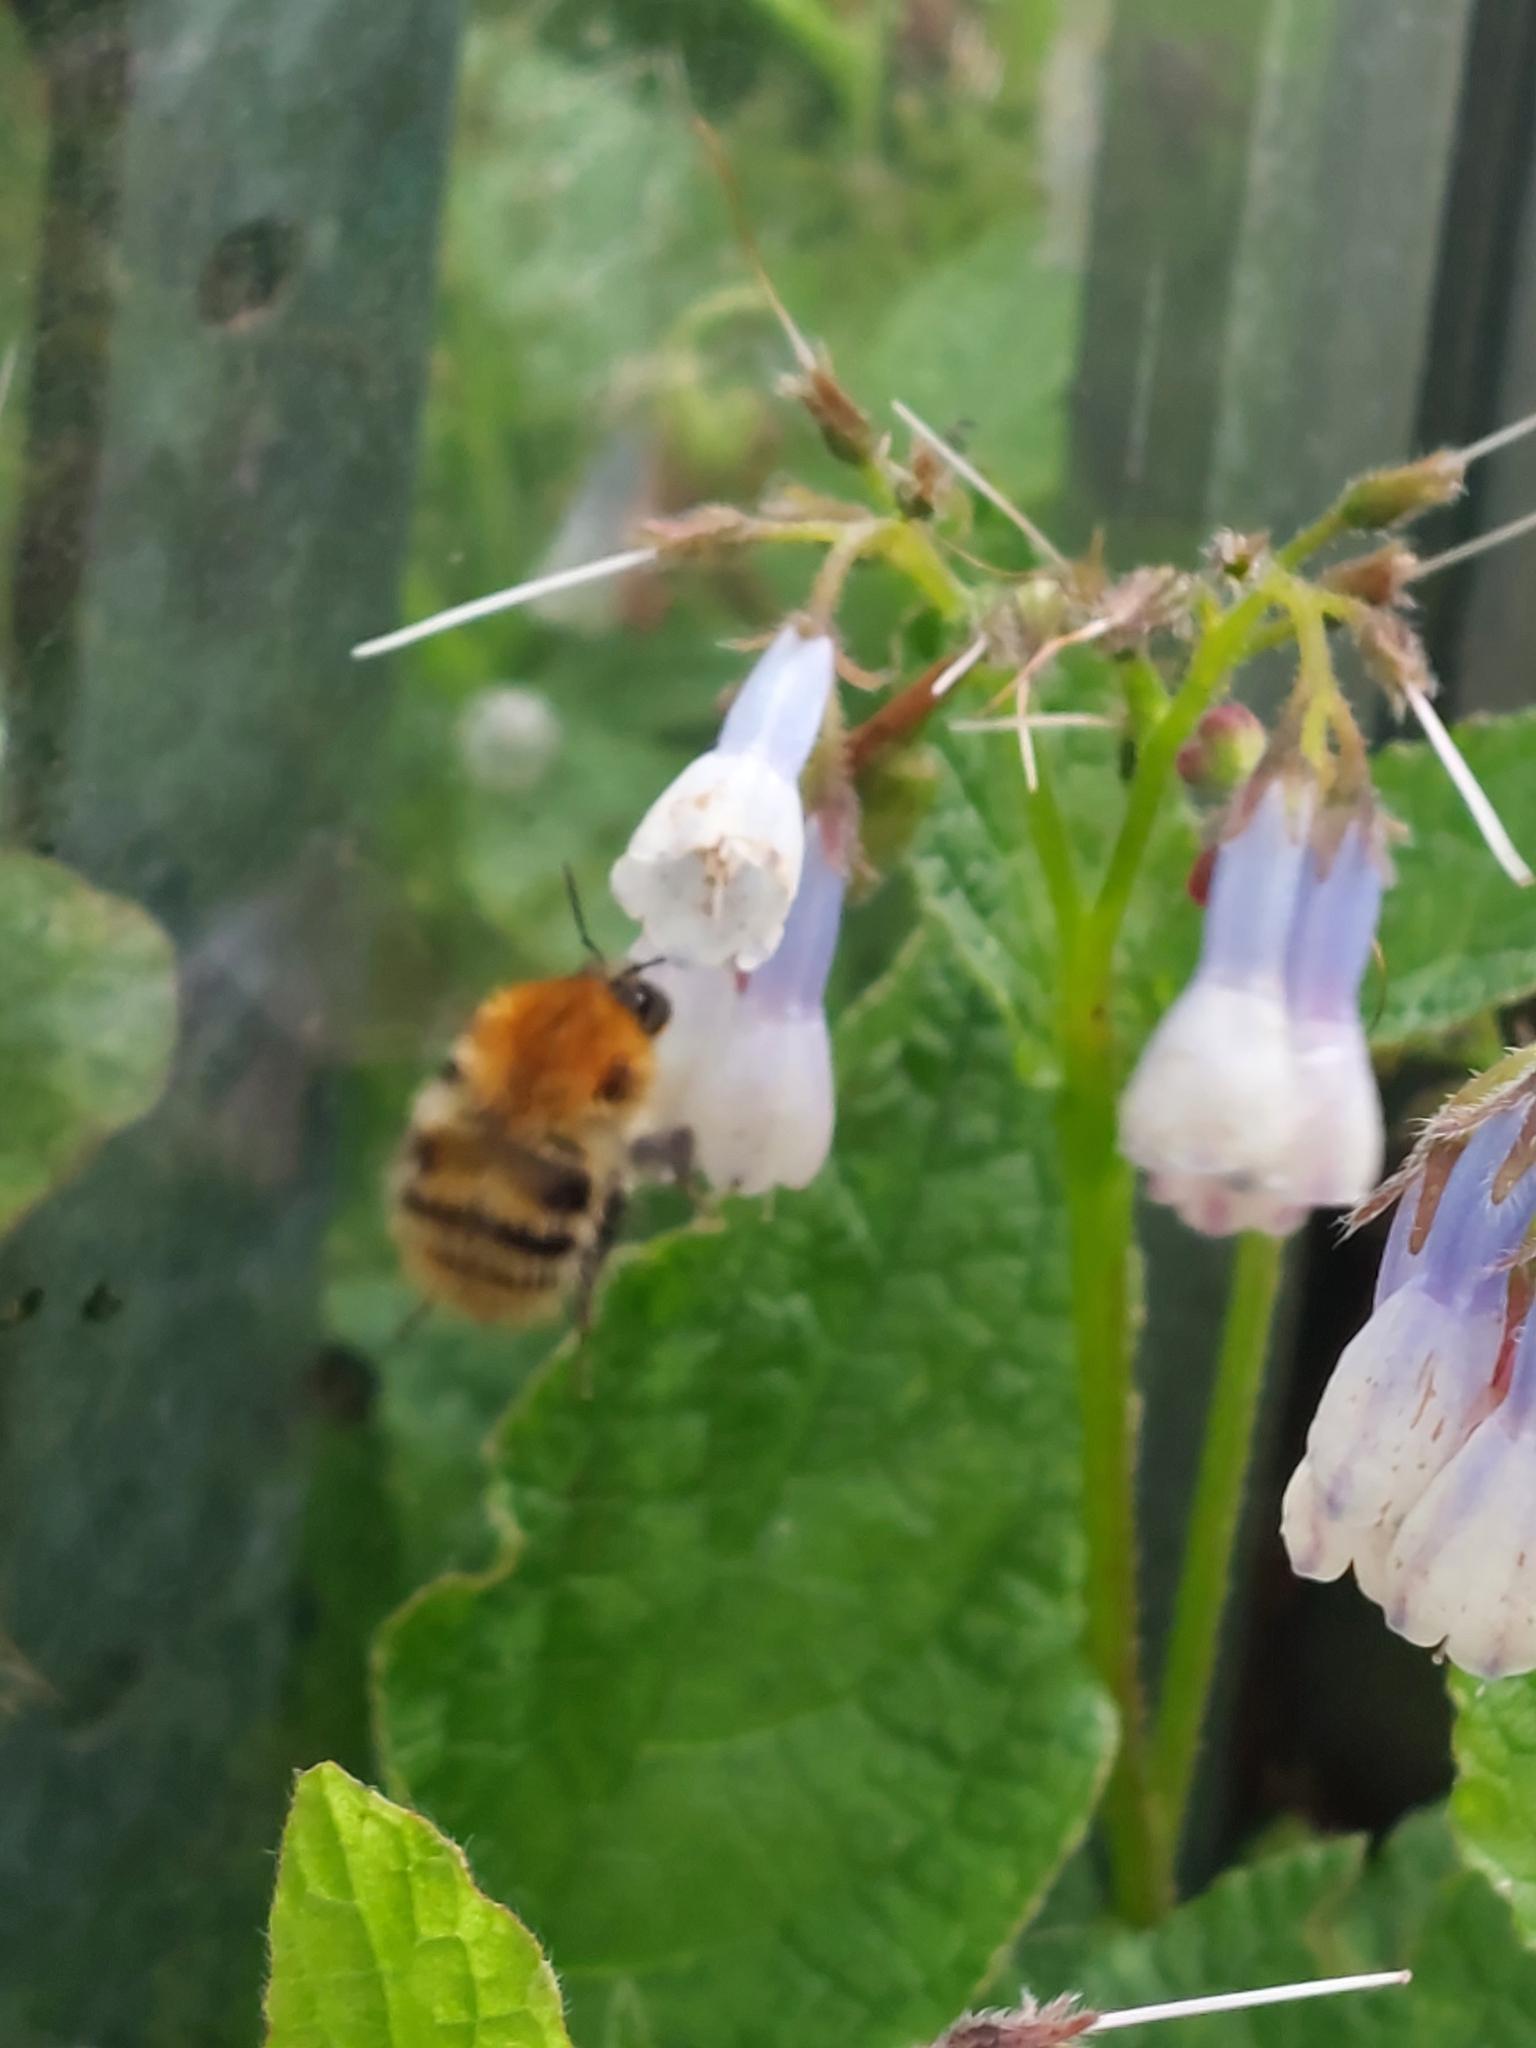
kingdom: Animalia
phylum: Arthropoda
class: Insecta
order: Hymenoptera
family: Apidae
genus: Bombus
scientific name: Bombus pascuorum
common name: Common carder bee
